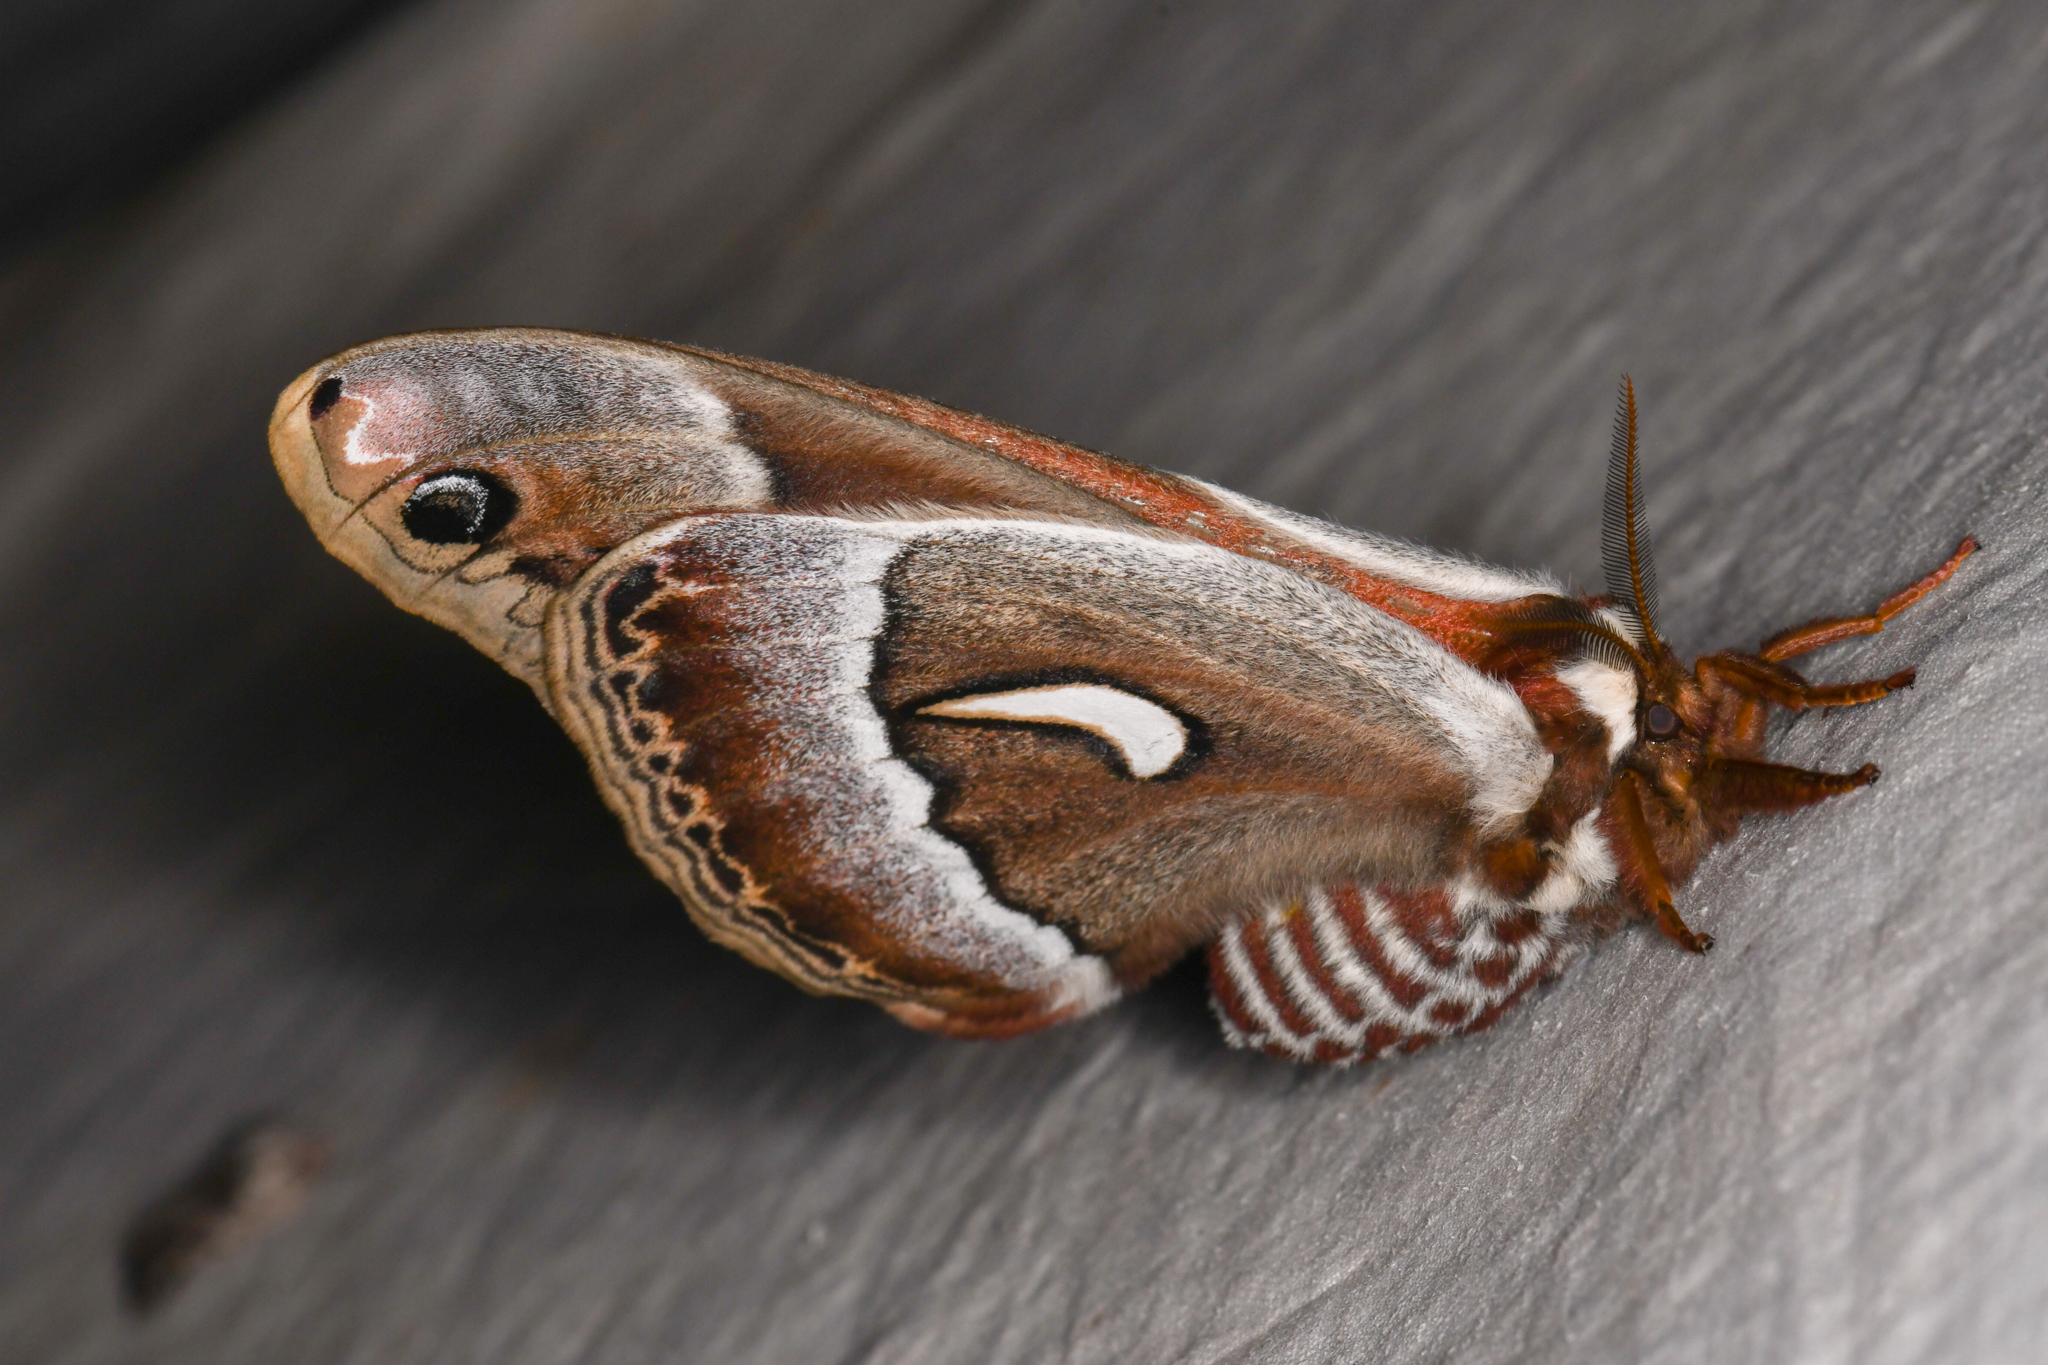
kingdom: Animalia
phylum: Arthropoda
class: Insecta
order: Lepidoptera
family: Saturniidae
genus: Hyalophora
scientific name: Hyalophora euryalus
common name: Ceanothus silkmoth
